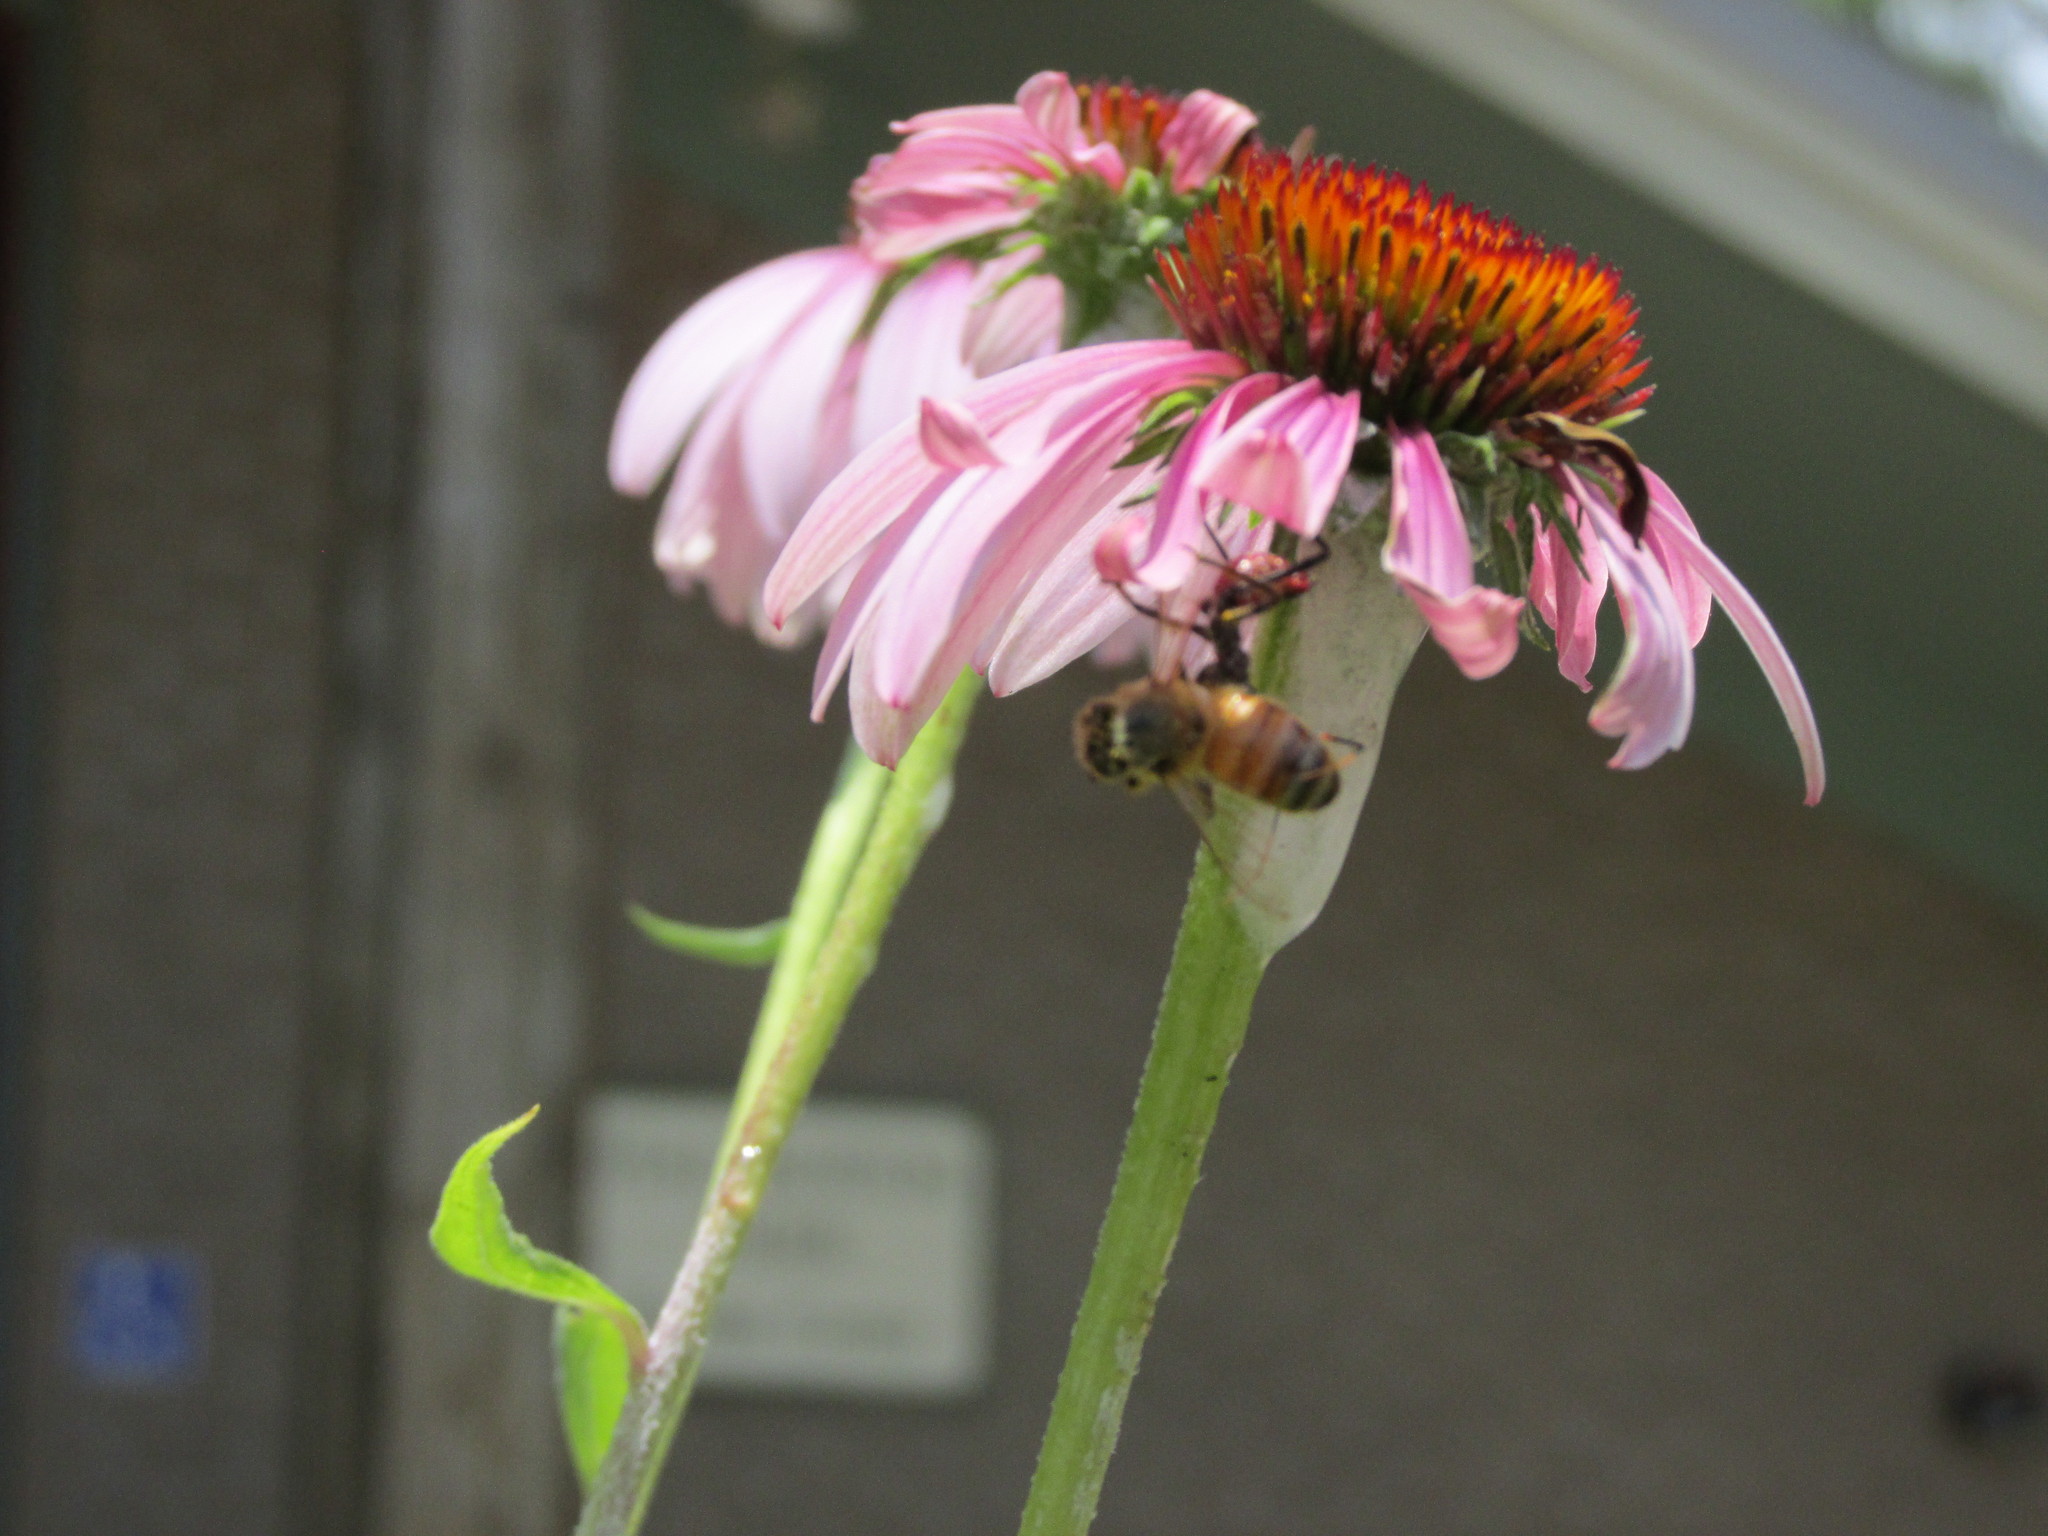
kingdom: Animalia
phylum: Arthropoda
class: Insecta
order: Hemiptera
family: Reduviidae
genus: Arilus
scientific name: Arilus cristatus
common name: North american wheel bug
